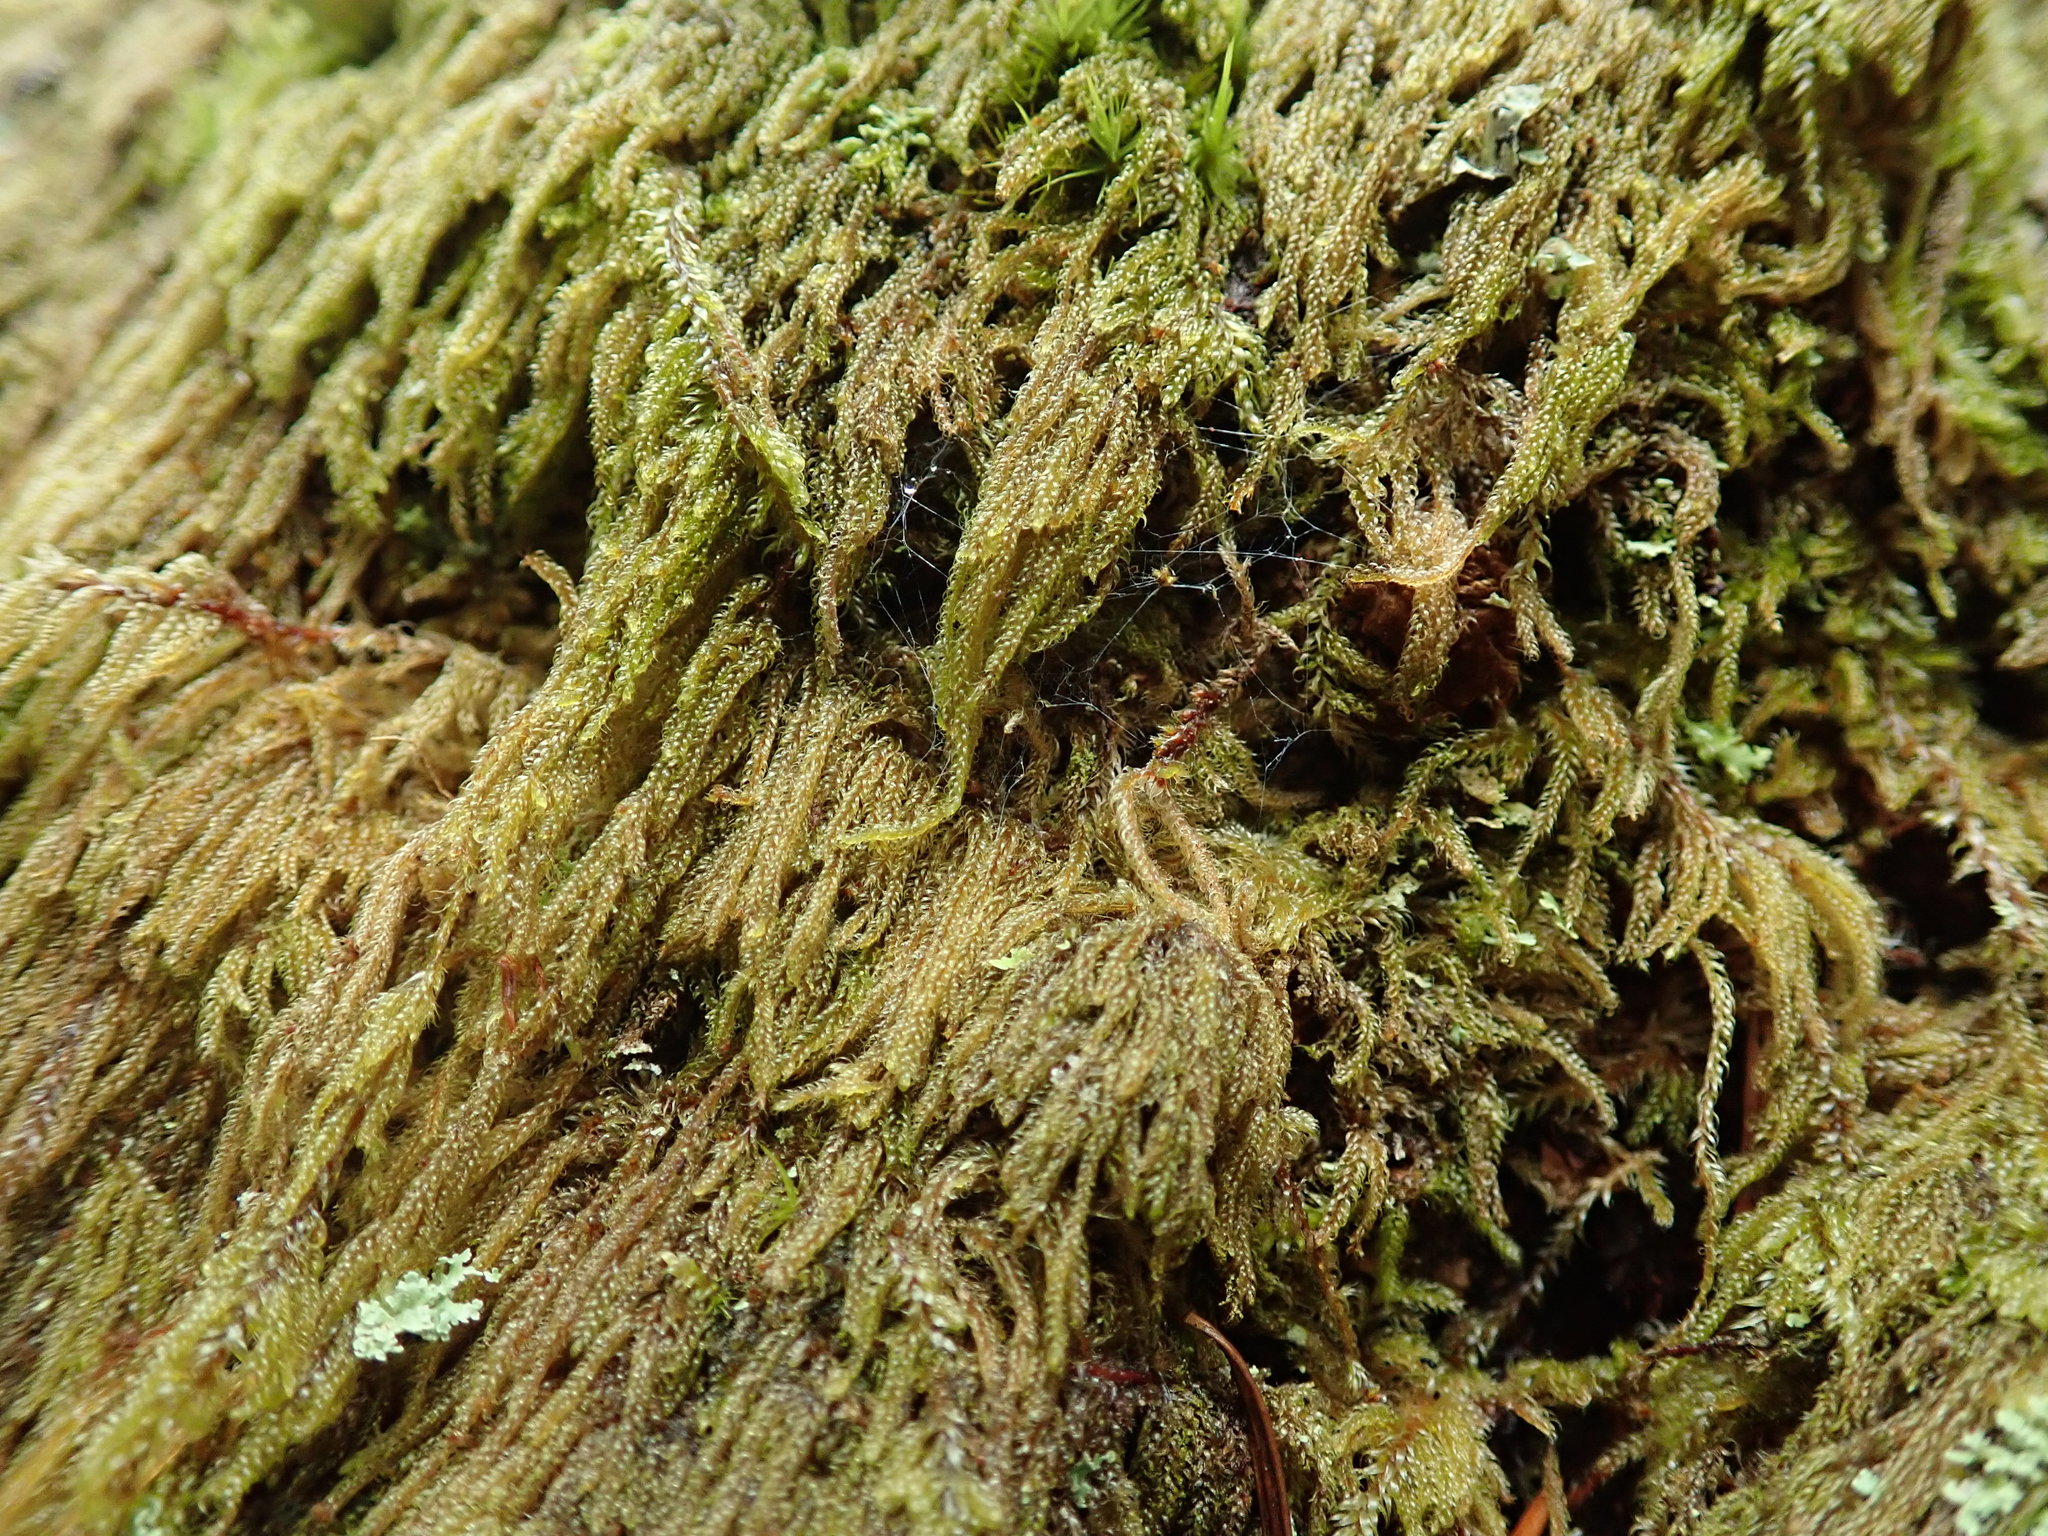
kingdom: Plantae
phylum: Bryophyta
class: Bryopsida
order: Hypnales
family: Pylaisiadelphaceae
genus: Trochophyllohypnum
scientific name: Trochophyllohypnum circinale
